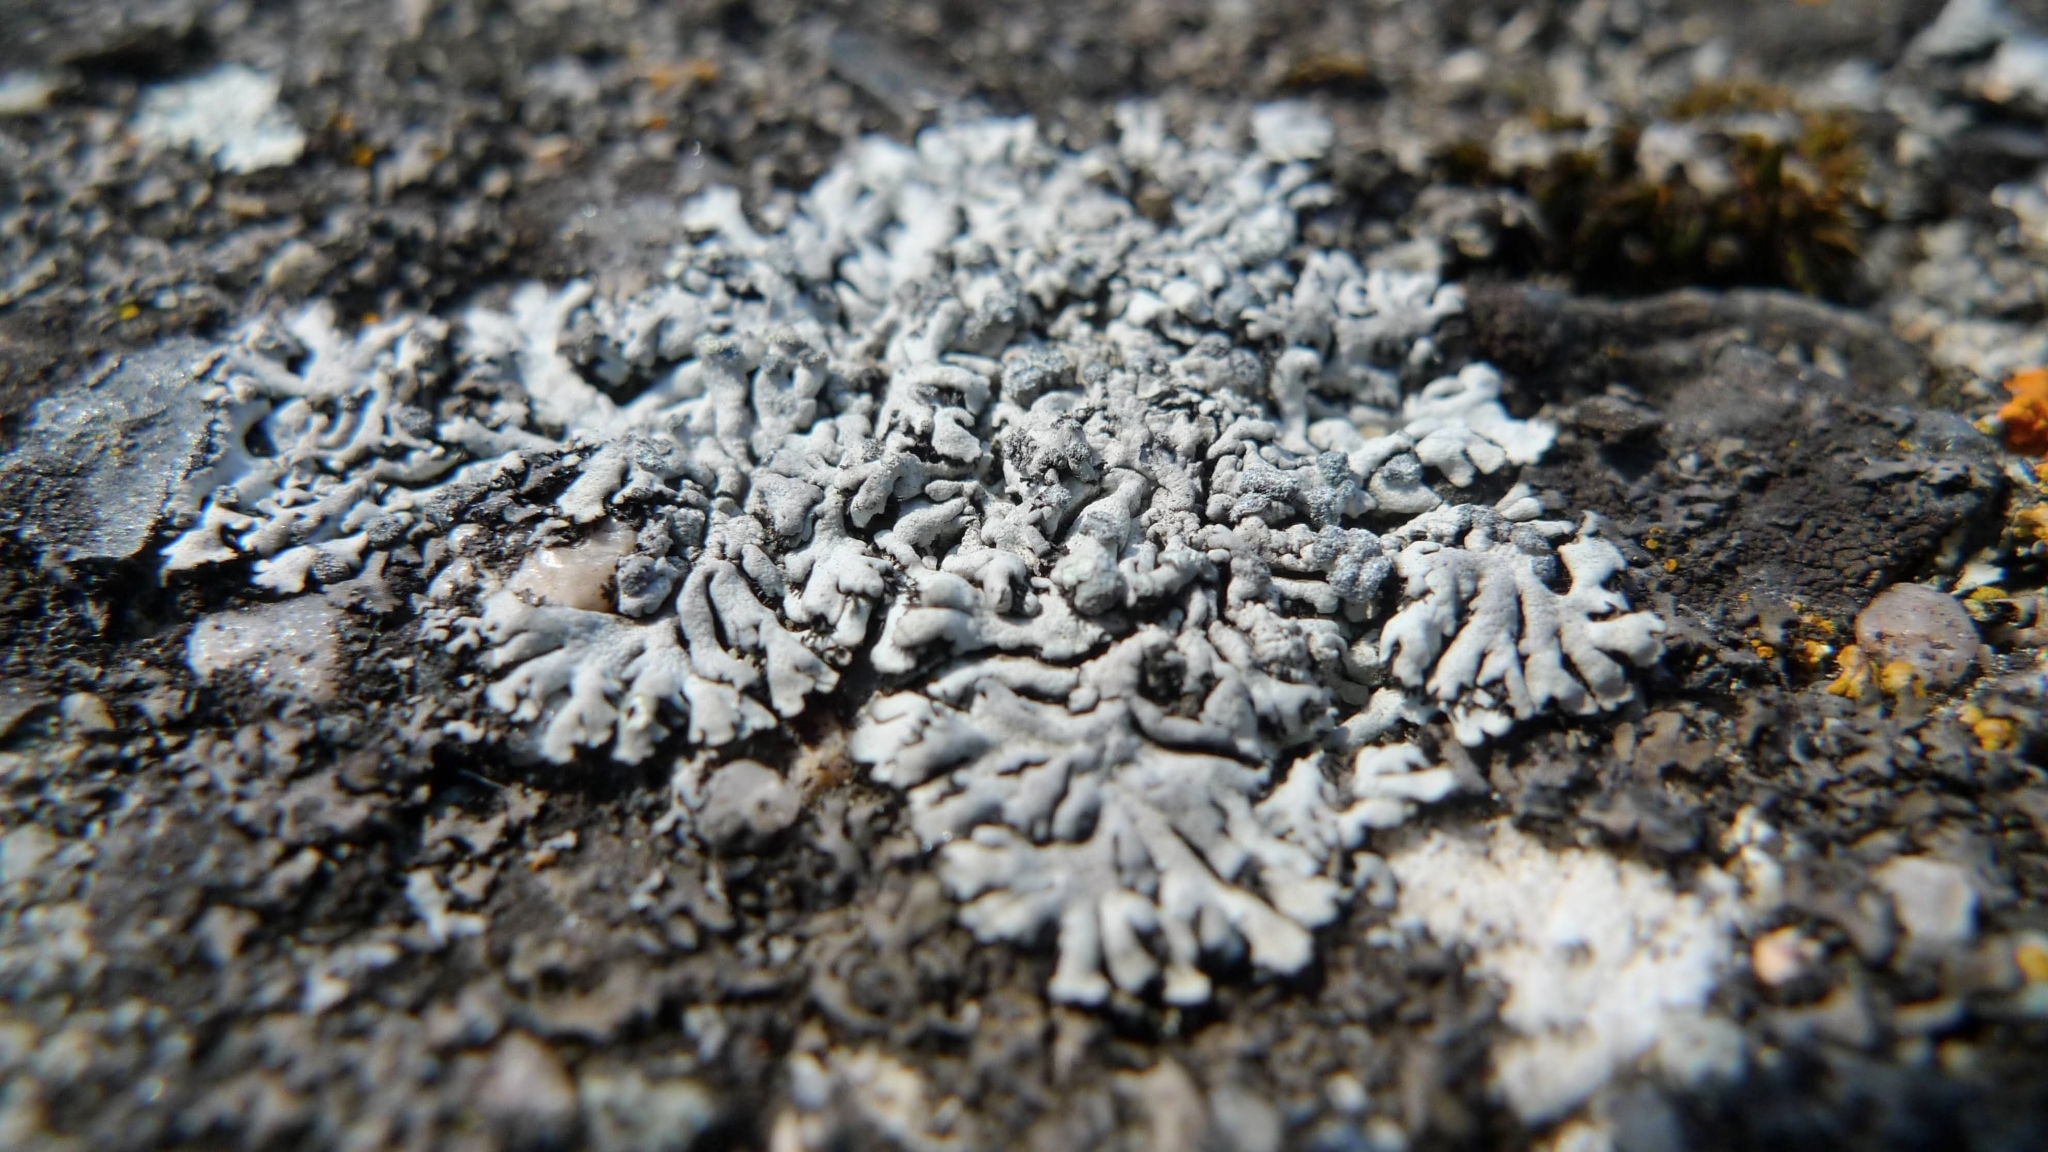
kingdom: Fungi
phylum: Ascomycota
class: Lecanoromycetes
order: Caliciales
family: Physciaceae
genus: Physcia
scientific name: Physcia caesia
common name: Blue-gray rosette lichen
